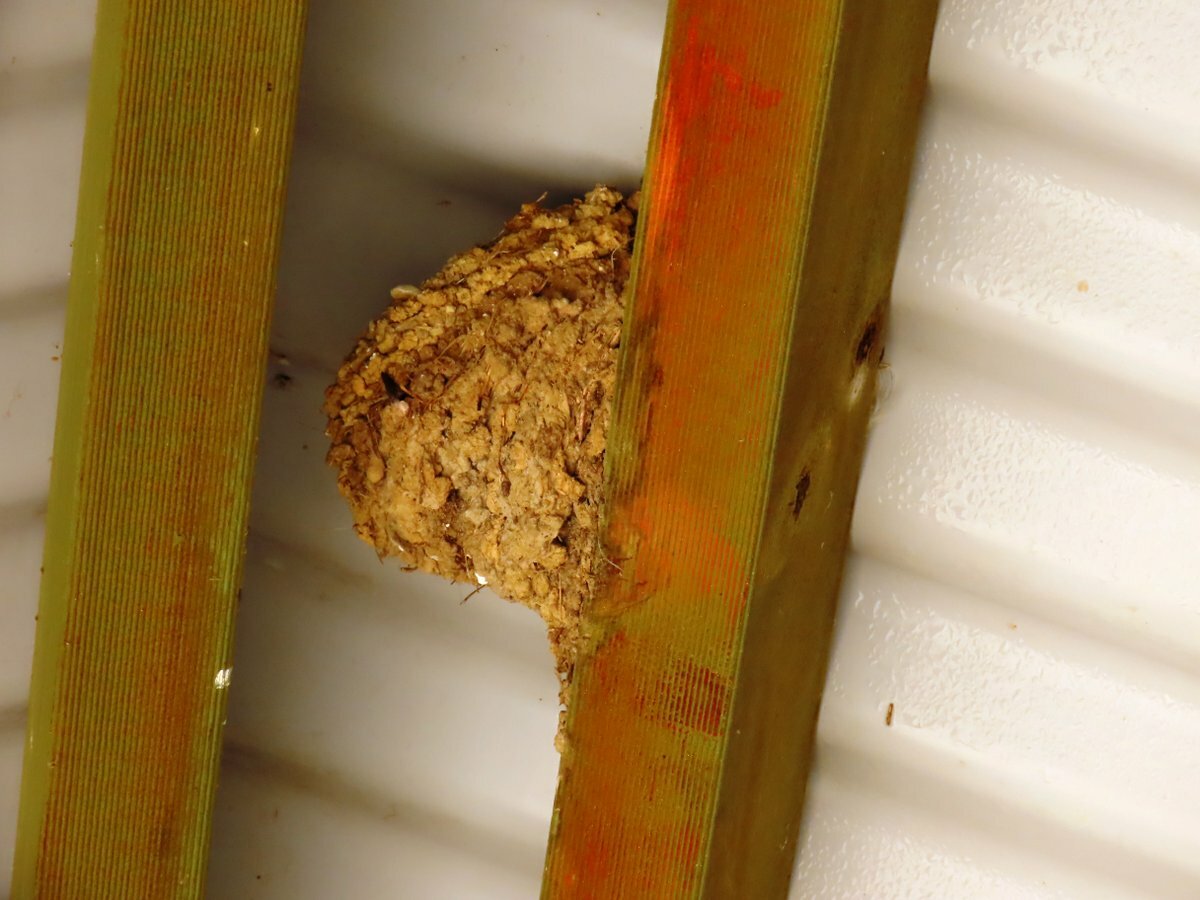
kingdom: Animalia
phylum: Chordata
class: Aves
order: Passeriformes
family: Hirundinidae
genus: Hirundo
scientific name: Hirundo neoxena
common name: Welcome swallow
